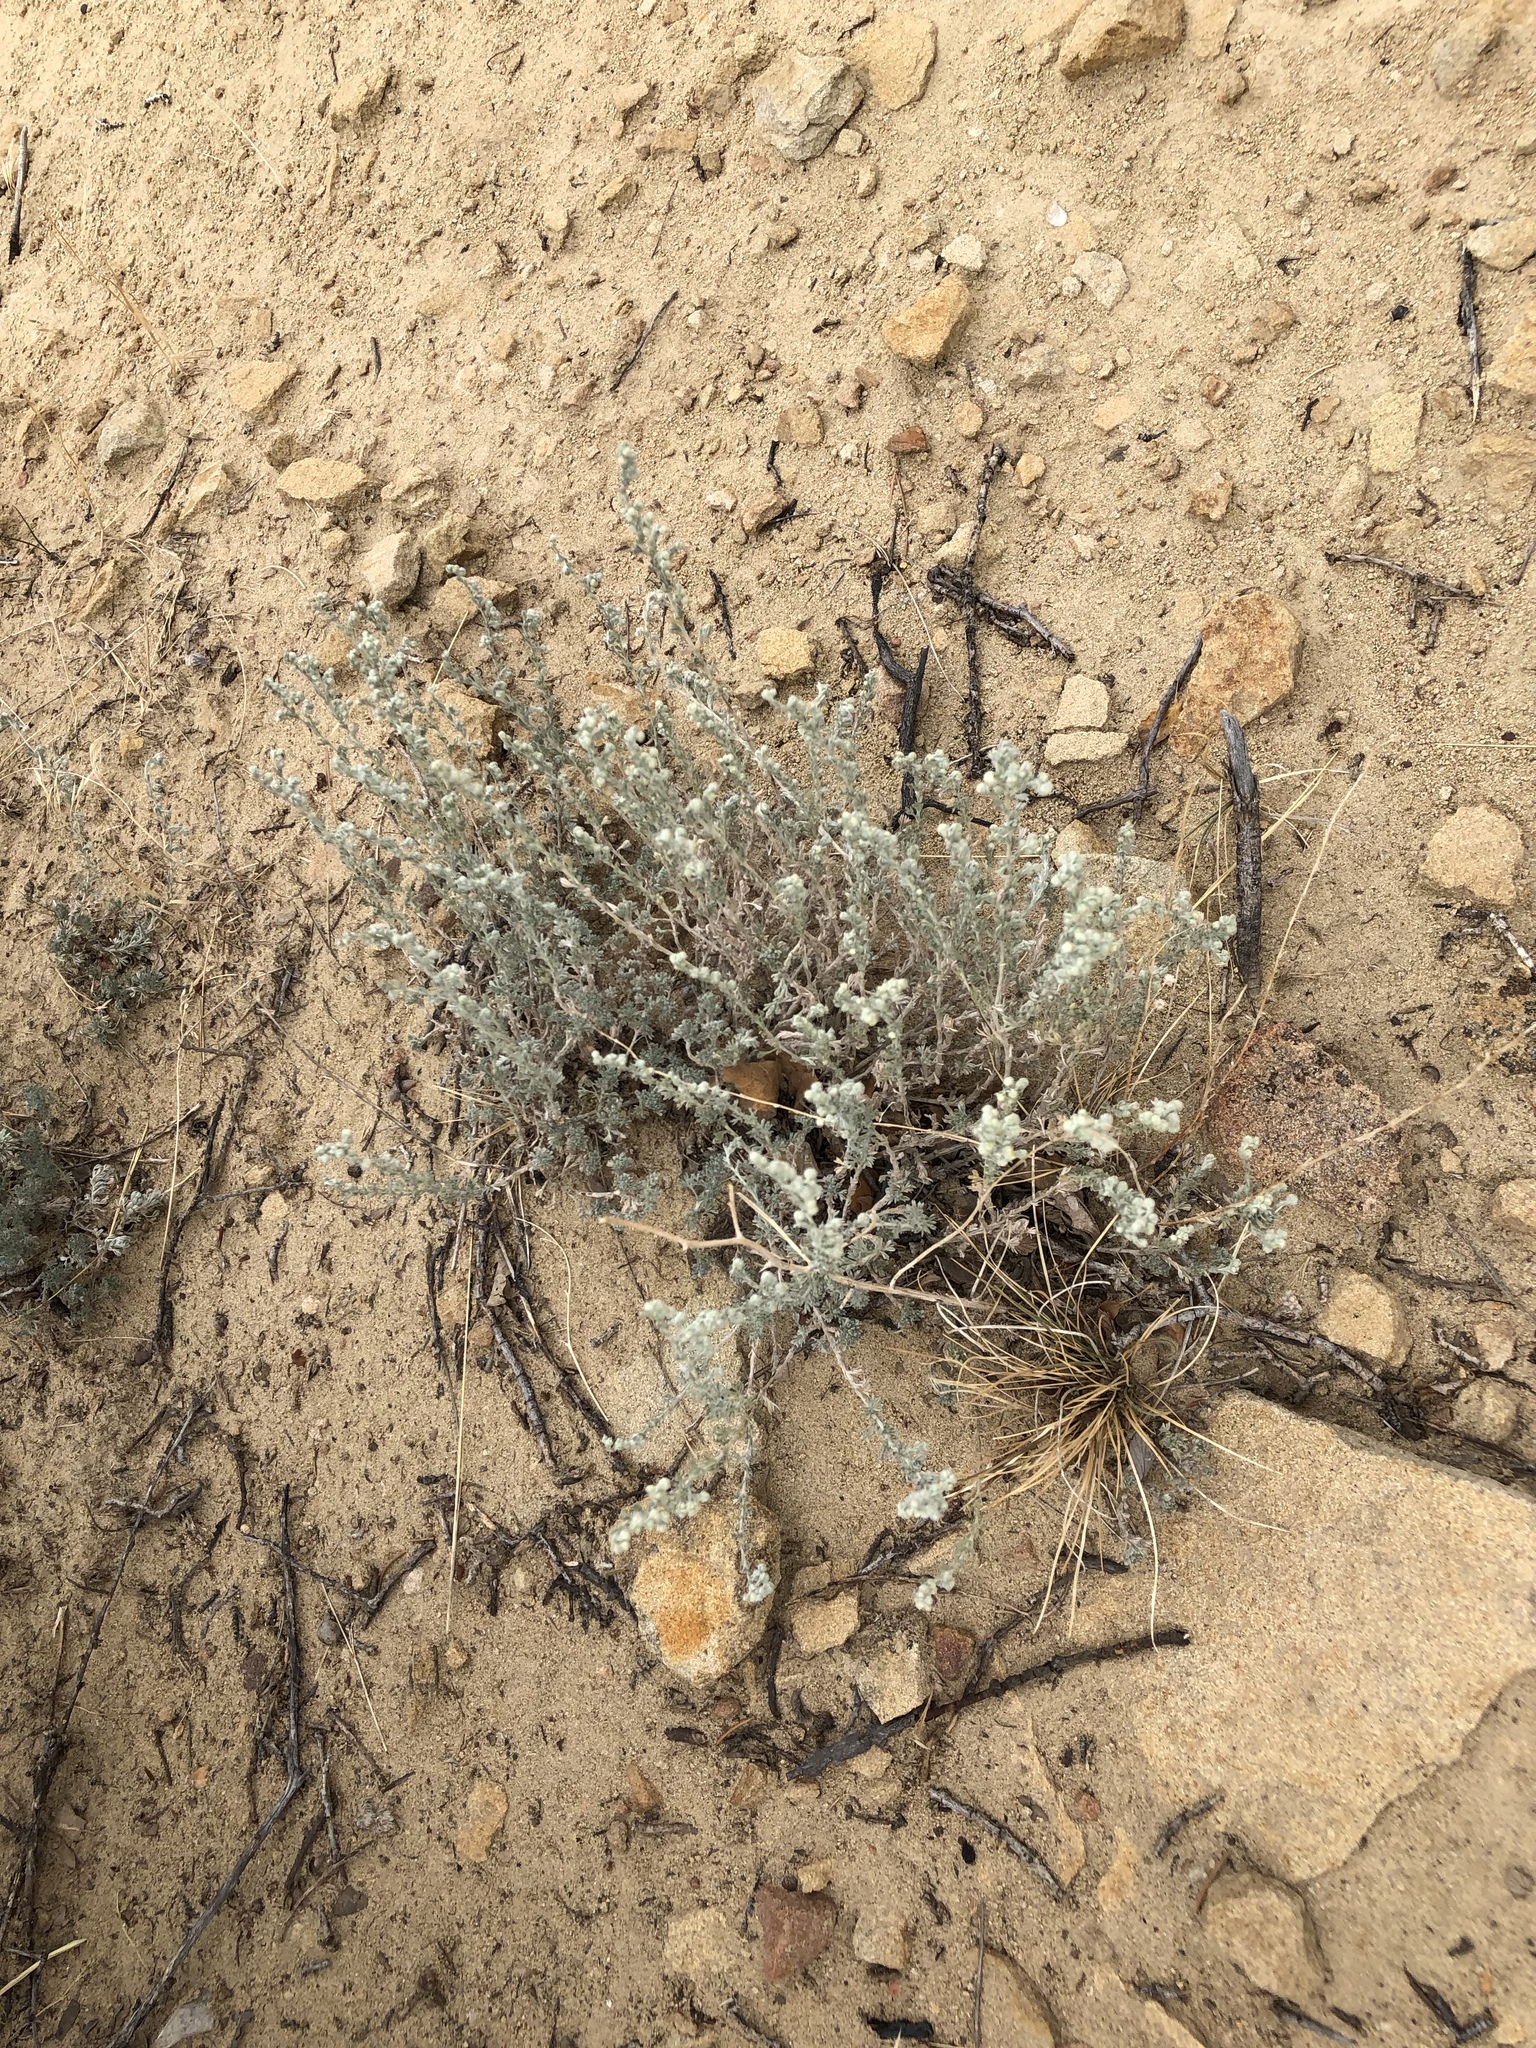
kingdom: Plantae
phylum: Tracheophyta
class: Magnoliopsida
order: Asterales
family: Asteraceae
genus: Artemisia
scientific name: Artemisia frigida
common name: Prairie sagewort
